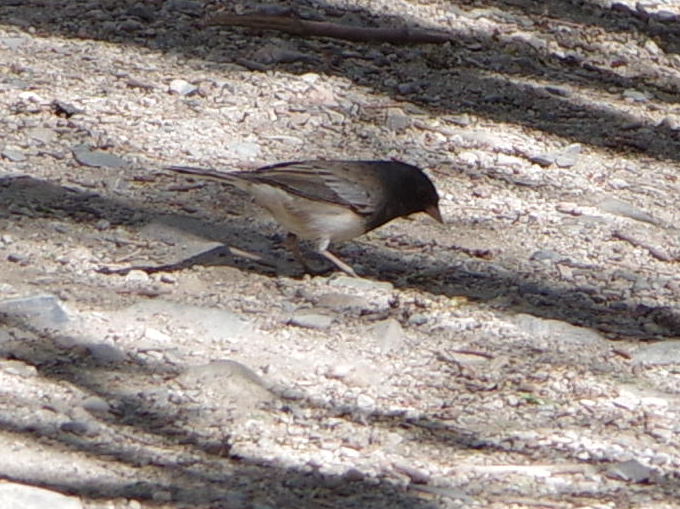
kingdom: Animalia
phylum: Chordata
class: Aves
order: Passeriformes
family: Passerellidae
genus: Junco
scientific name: Junco hyemalis
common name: Dark-eyed junco
